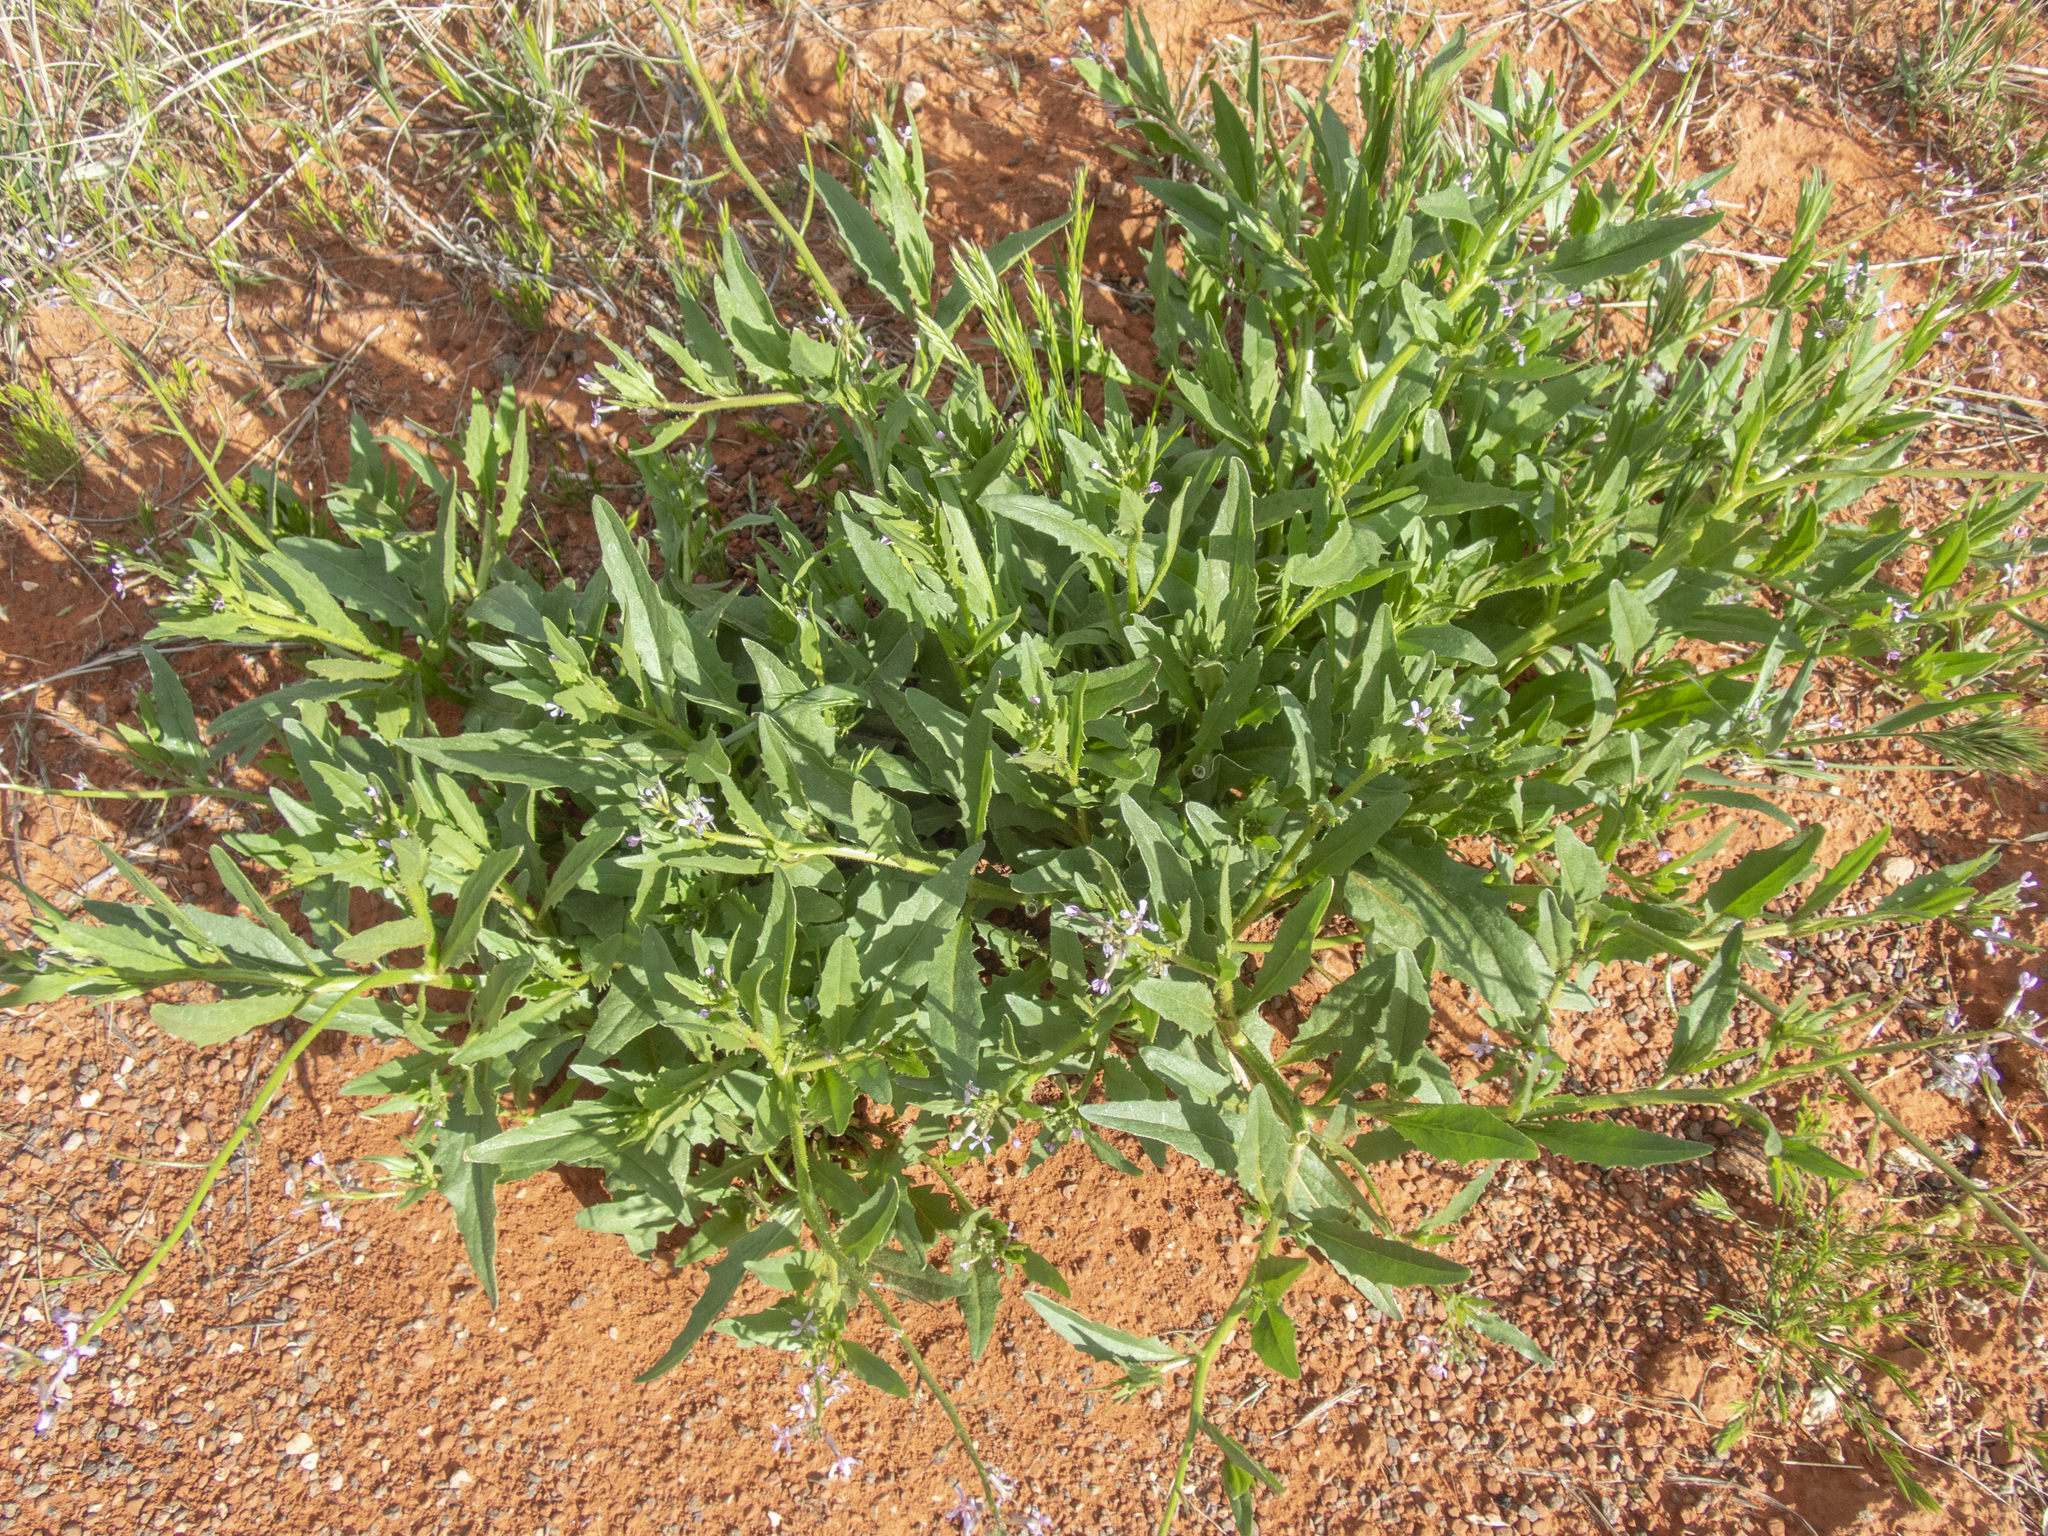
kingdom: Plantae
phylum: Tracheophyta
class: Magnoliopsida
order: Brassicales
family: Brassicaceae
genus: Chorispora
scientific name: Chorispora tenella
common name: Crossflower
